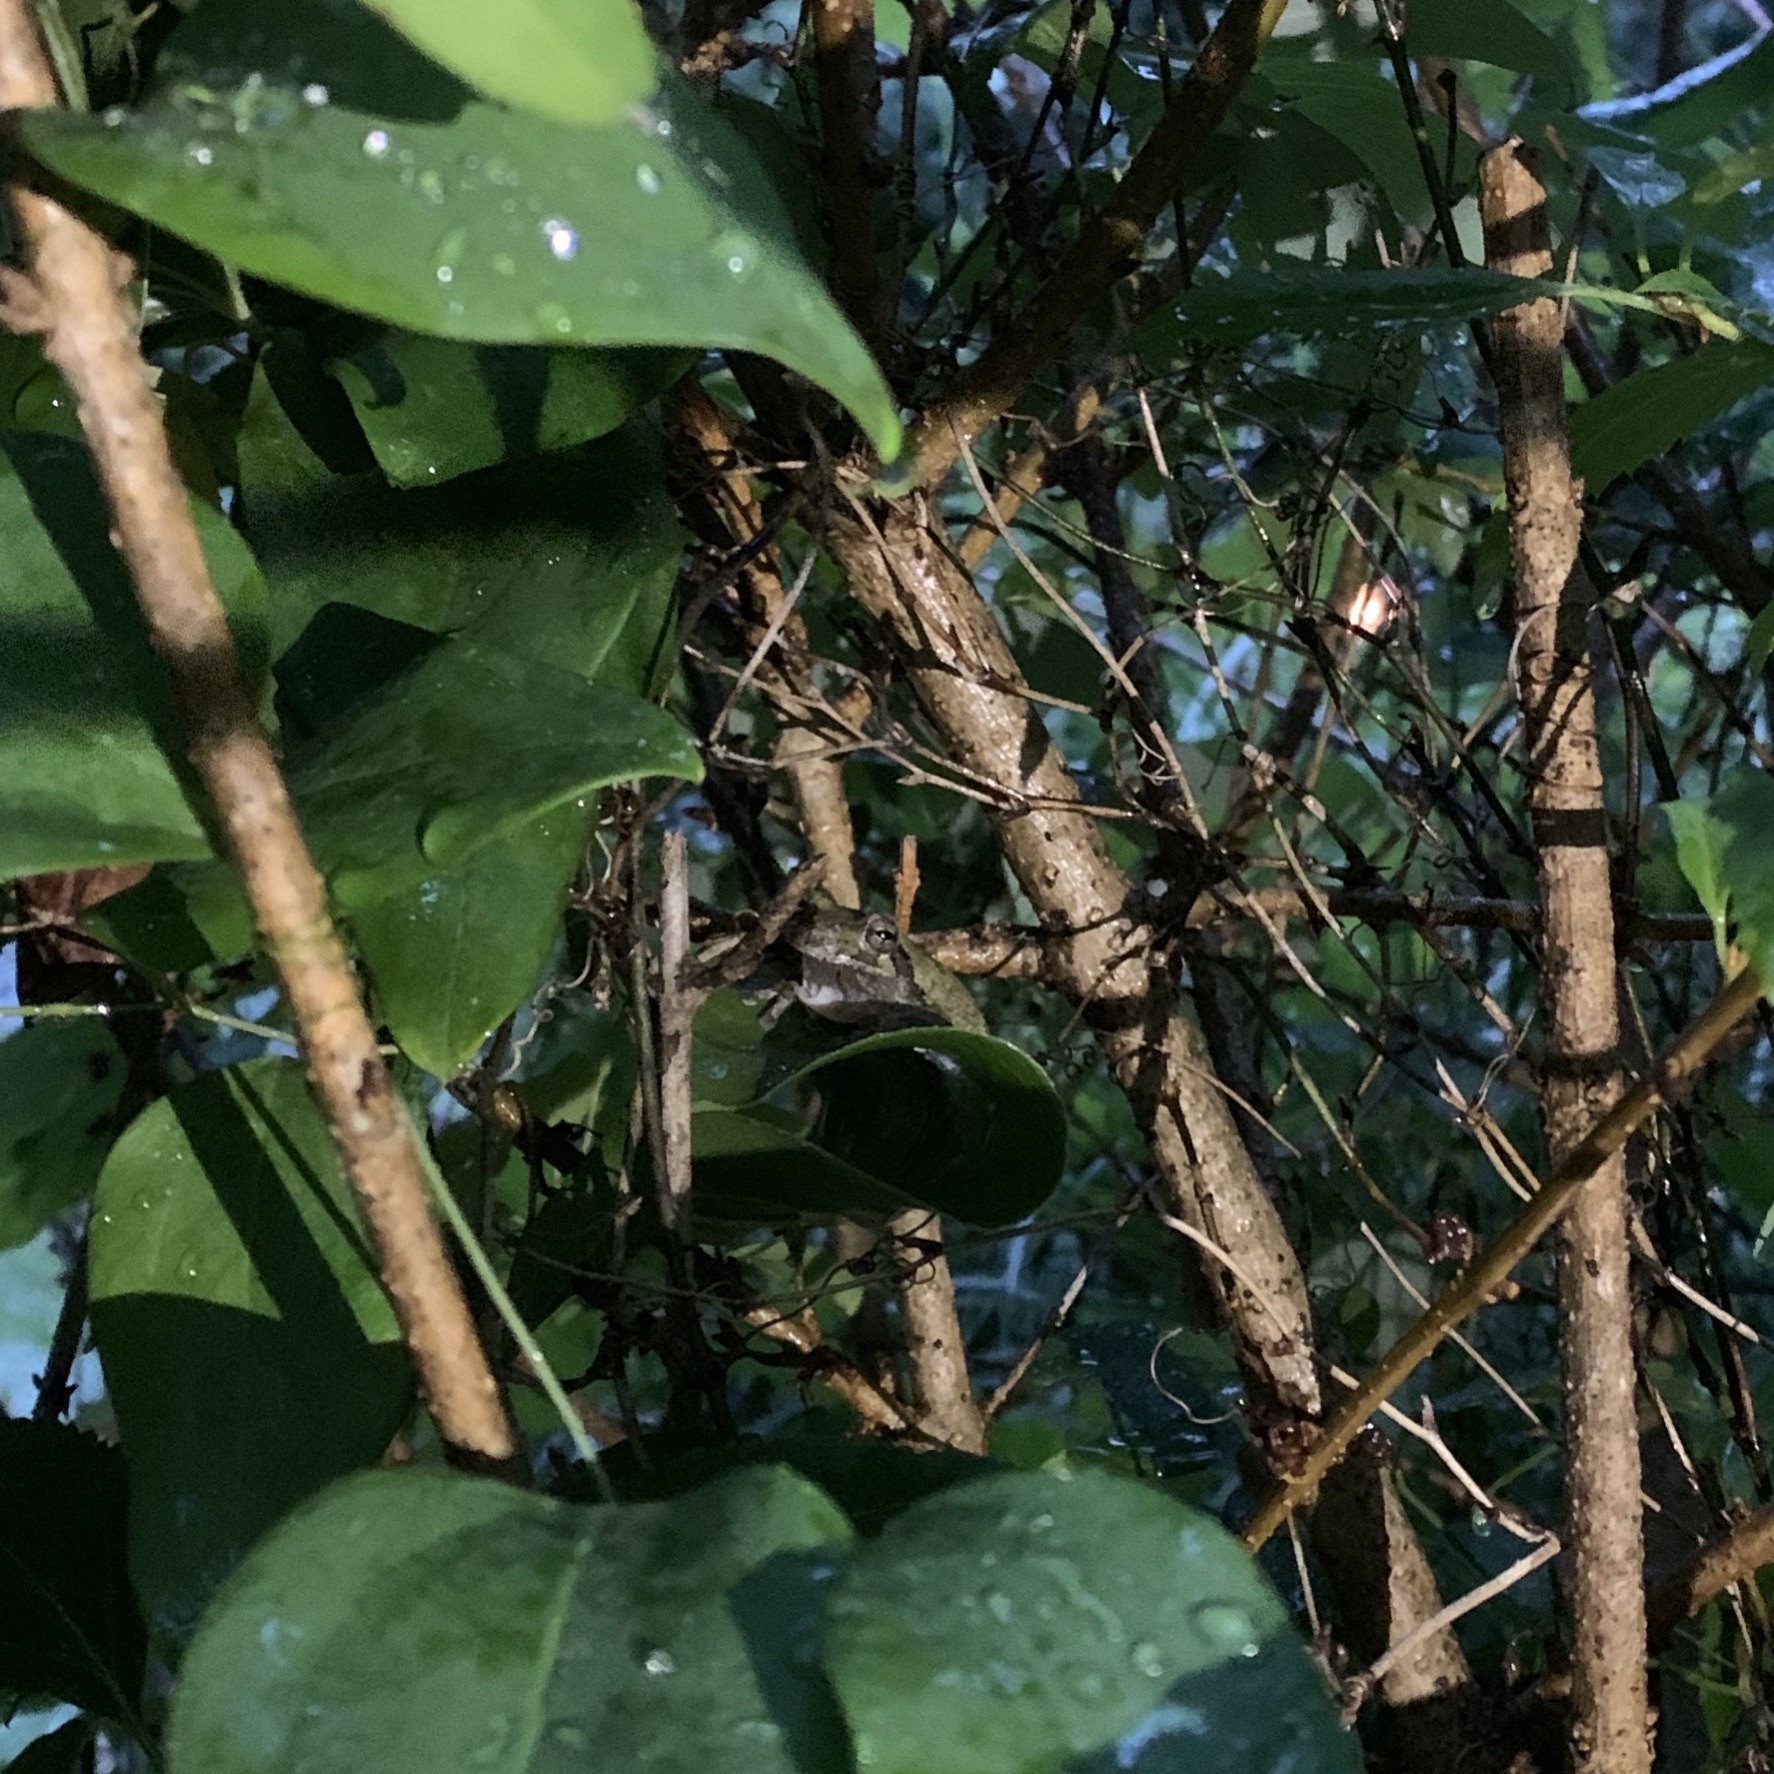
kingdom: Animalia
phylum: Chordata
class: Amphibia
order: Anura
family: Hylidae
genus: Dryophytes
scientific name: Dryophytes chrysoscelis
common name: Cope's gray treefrog
